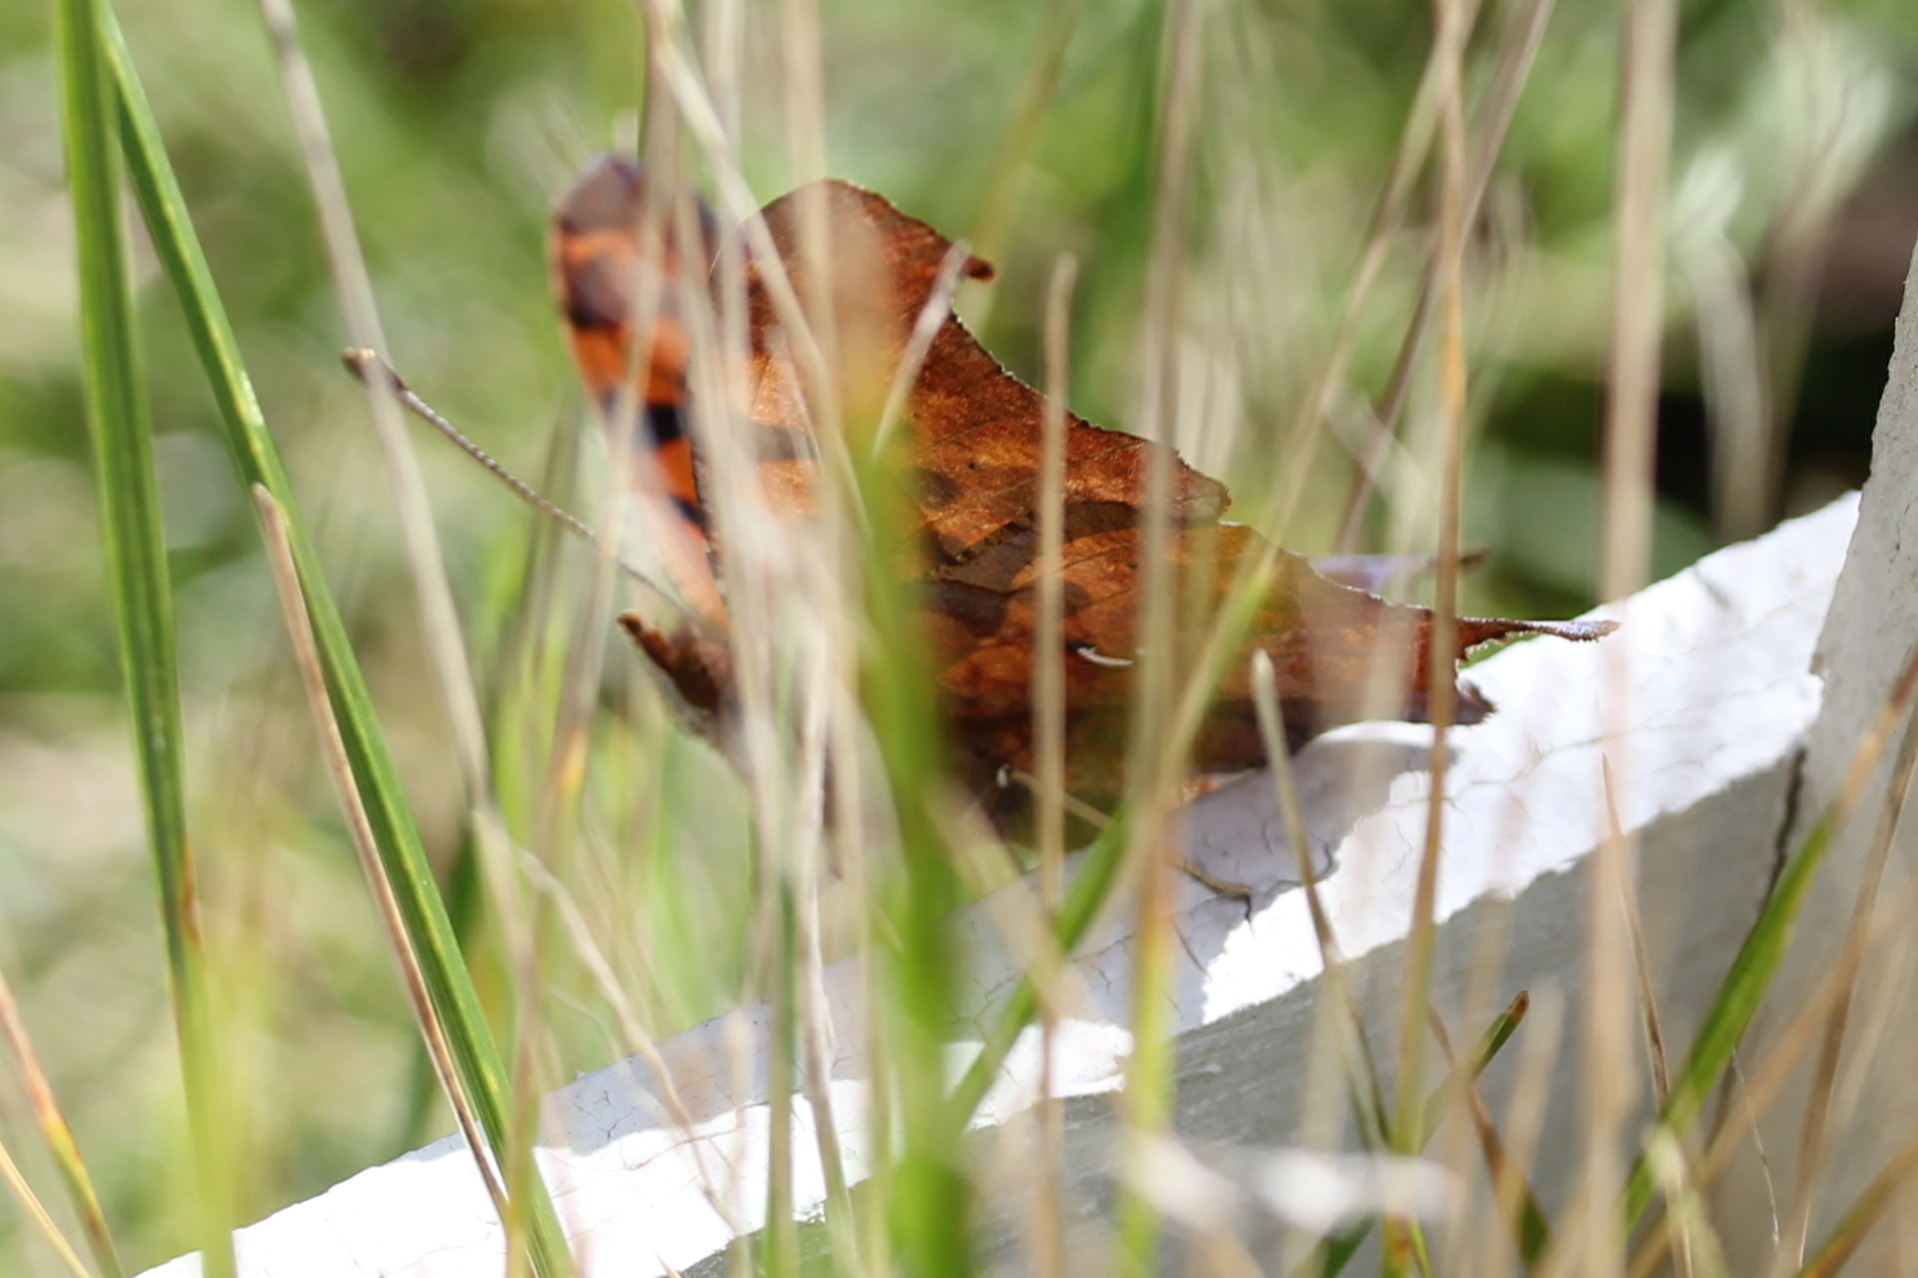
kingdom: Animalia
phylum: Arthropoda
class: Insecta
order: Lepidoptera
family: Nymphalidae
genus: Polygonia
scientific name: Polygonia interrogationis
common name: Question mark
